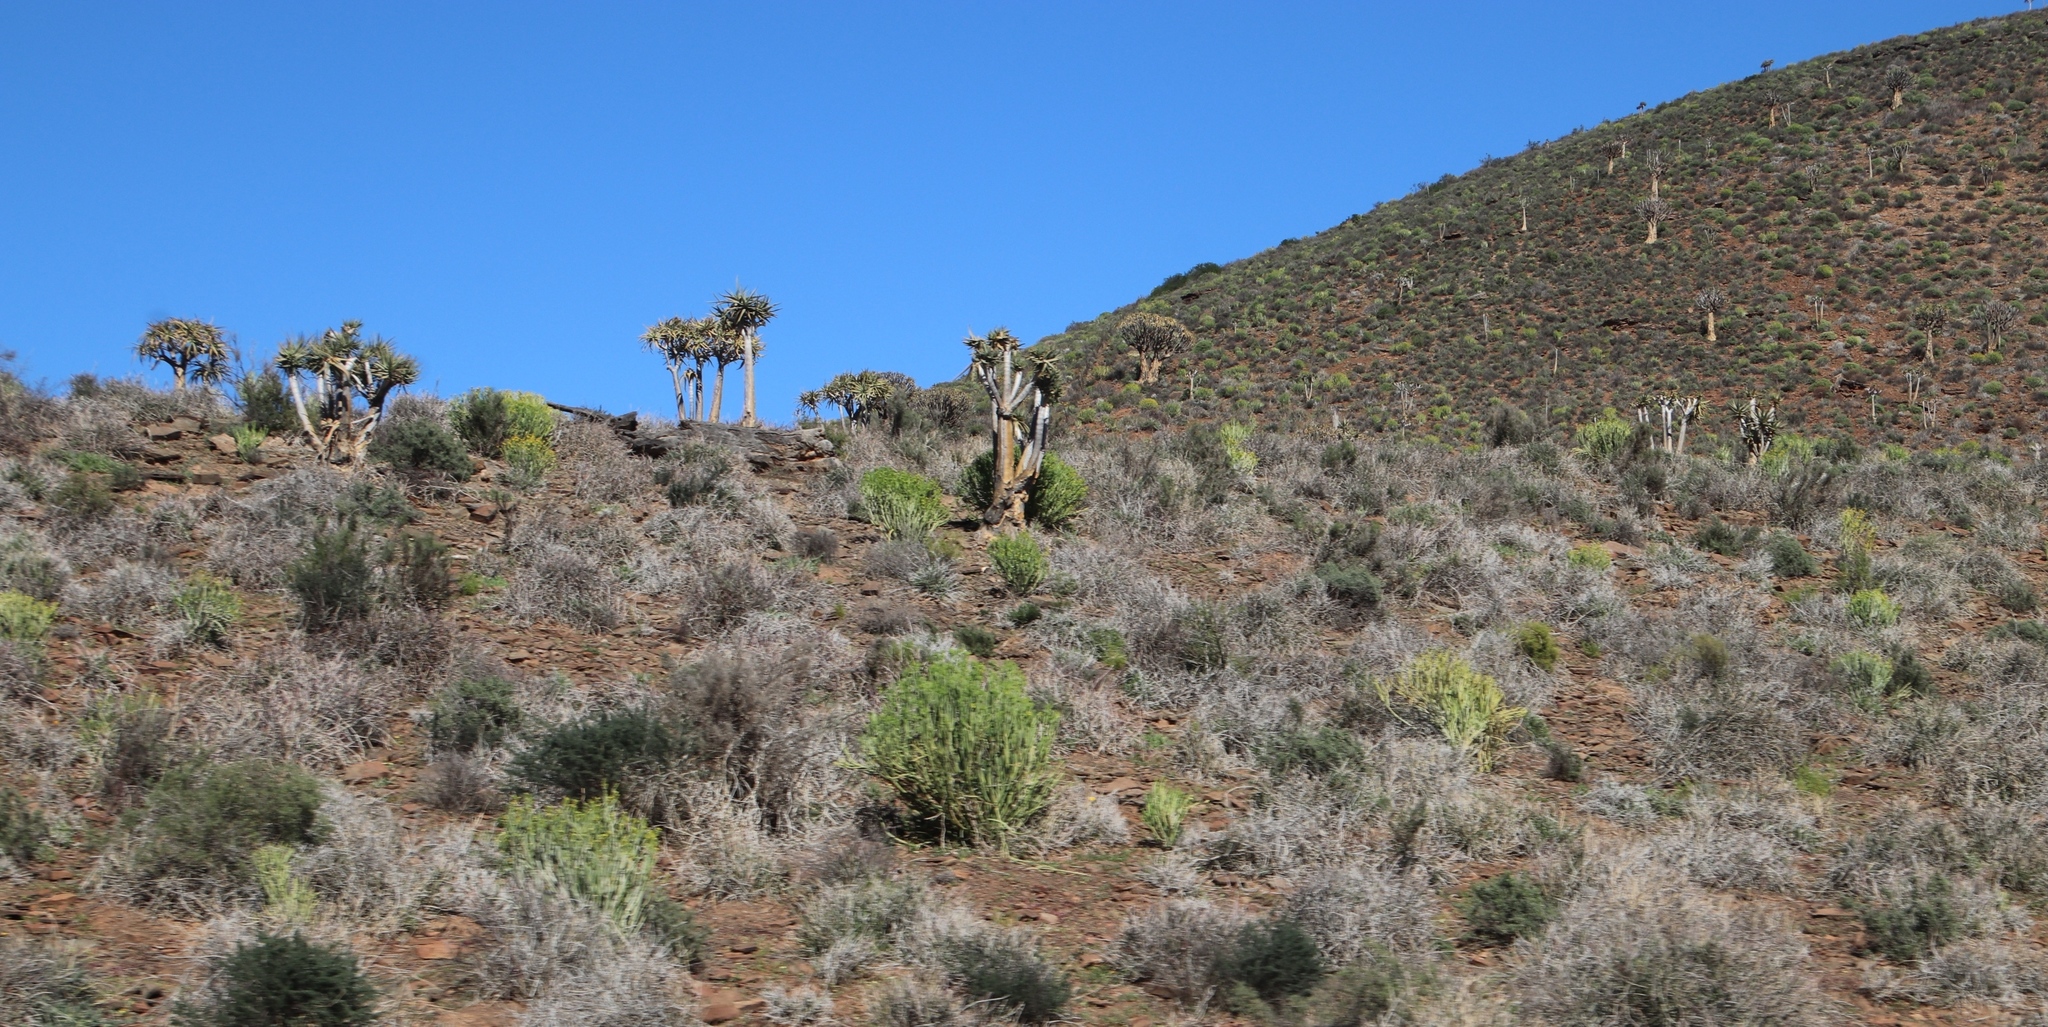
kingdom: Plantae
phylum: Tracheophyta
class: Liliopsida
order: Asparagales
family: Asphodelaceae
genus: Aloidendron
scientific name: Aloidendron dichotomum
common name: Quiver tree
